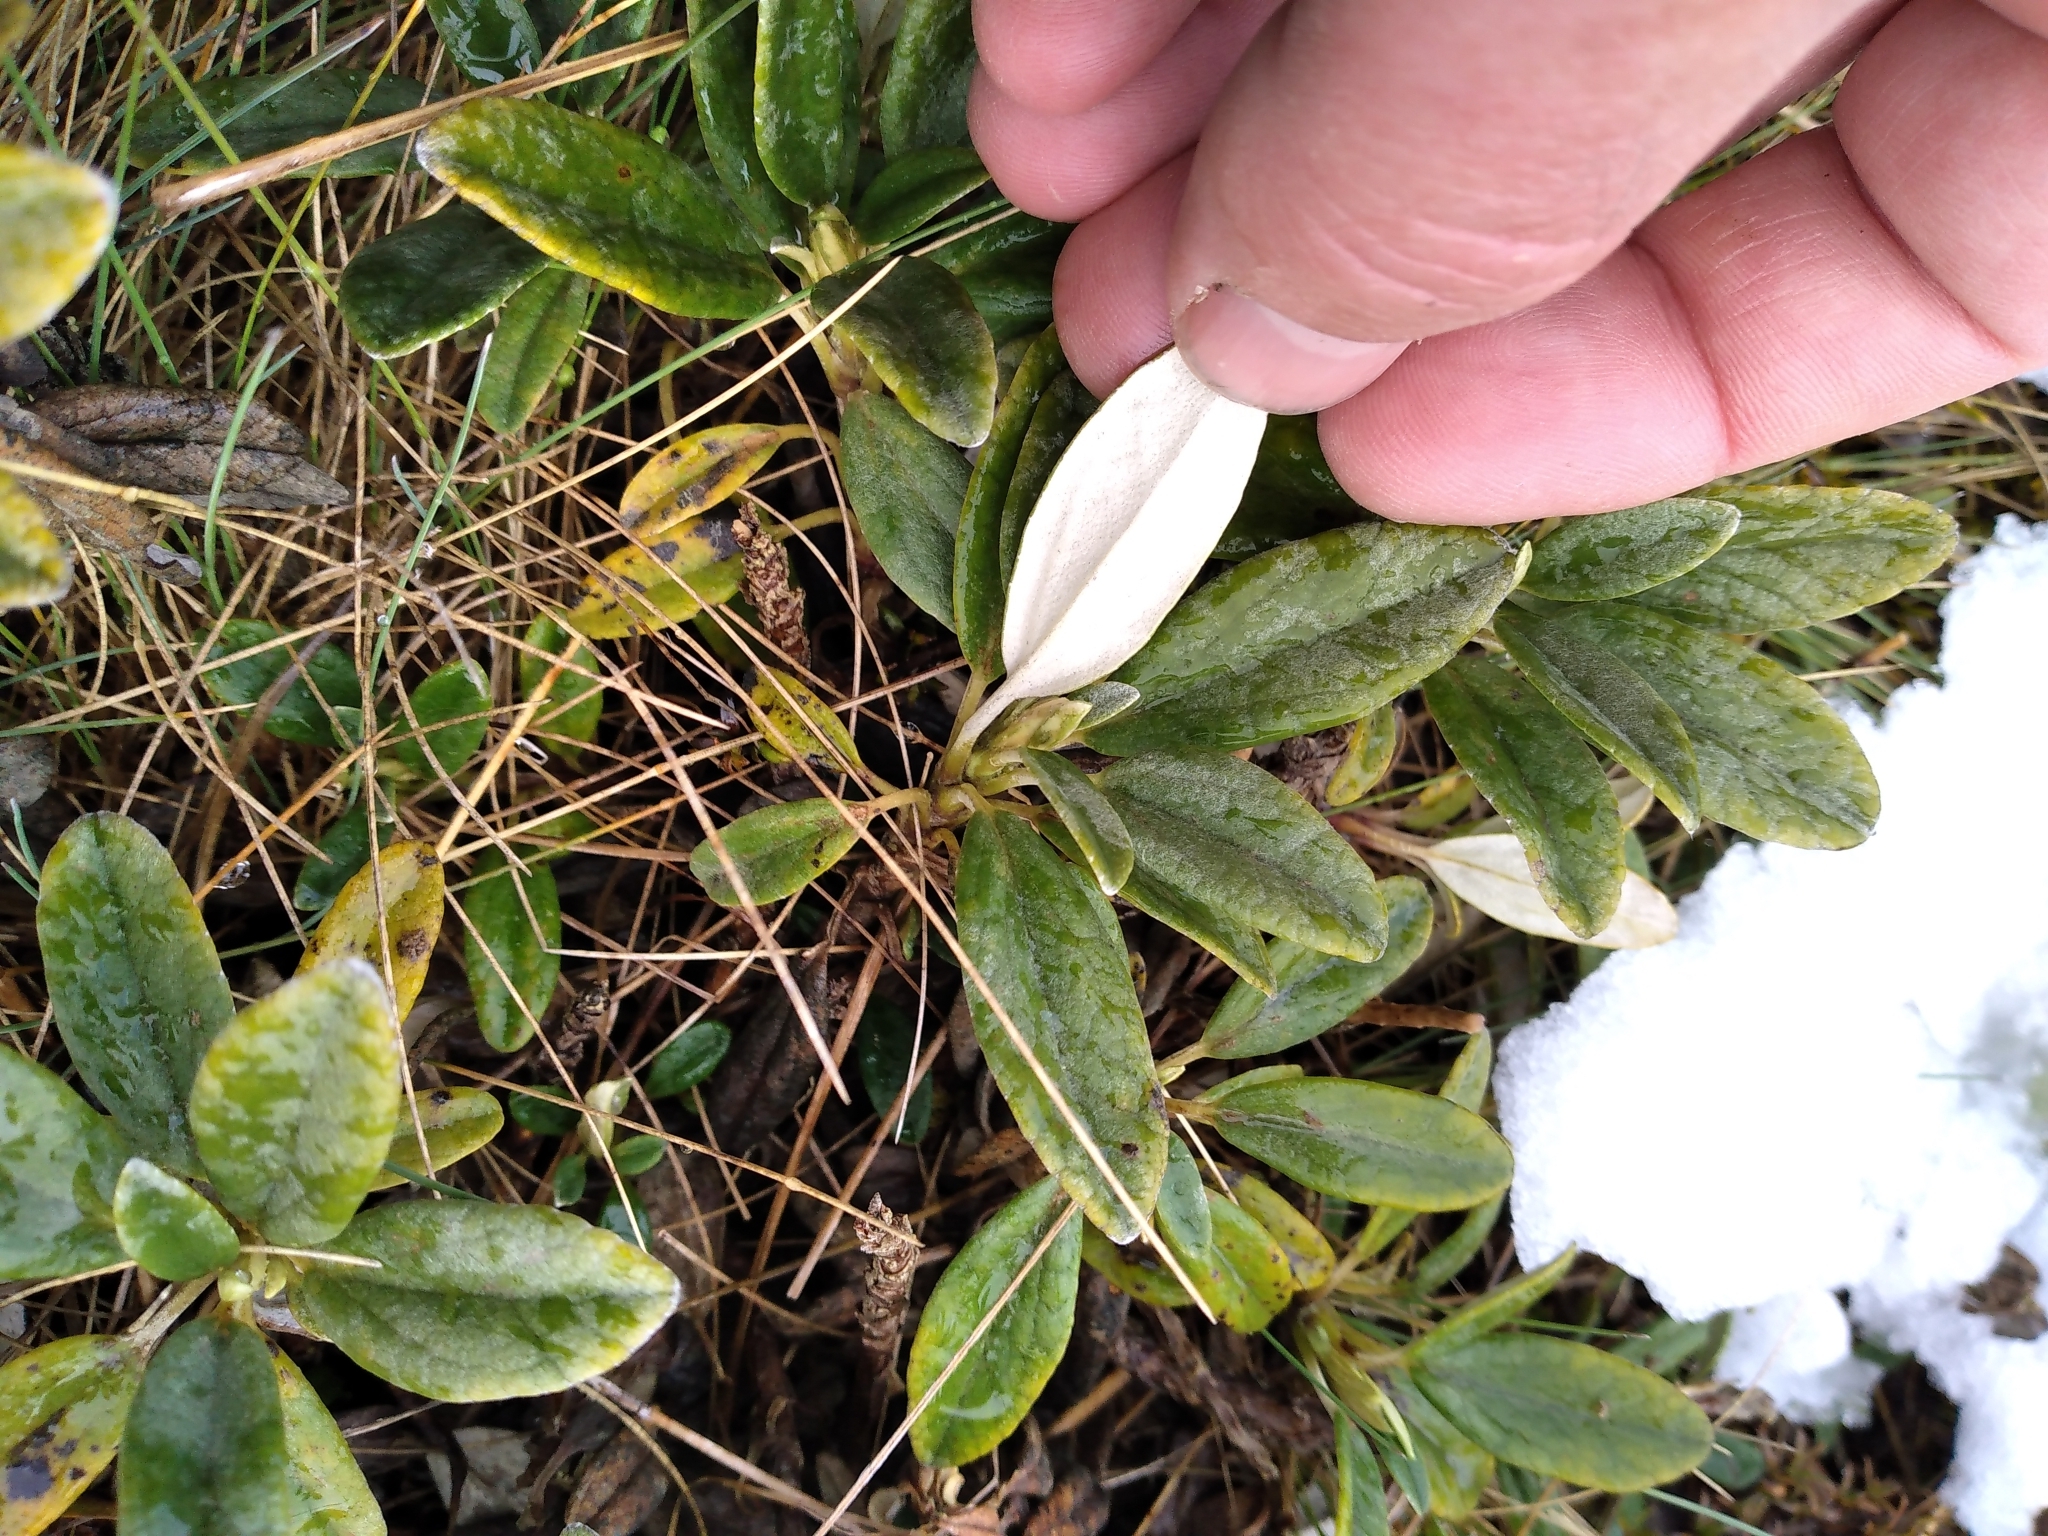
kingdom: Plantae
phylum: Tracheophyta
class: Magnoliopsida
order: Asterales
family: Asteraceae
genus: Brachyglottis
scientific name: Brachyglottis revoluta
